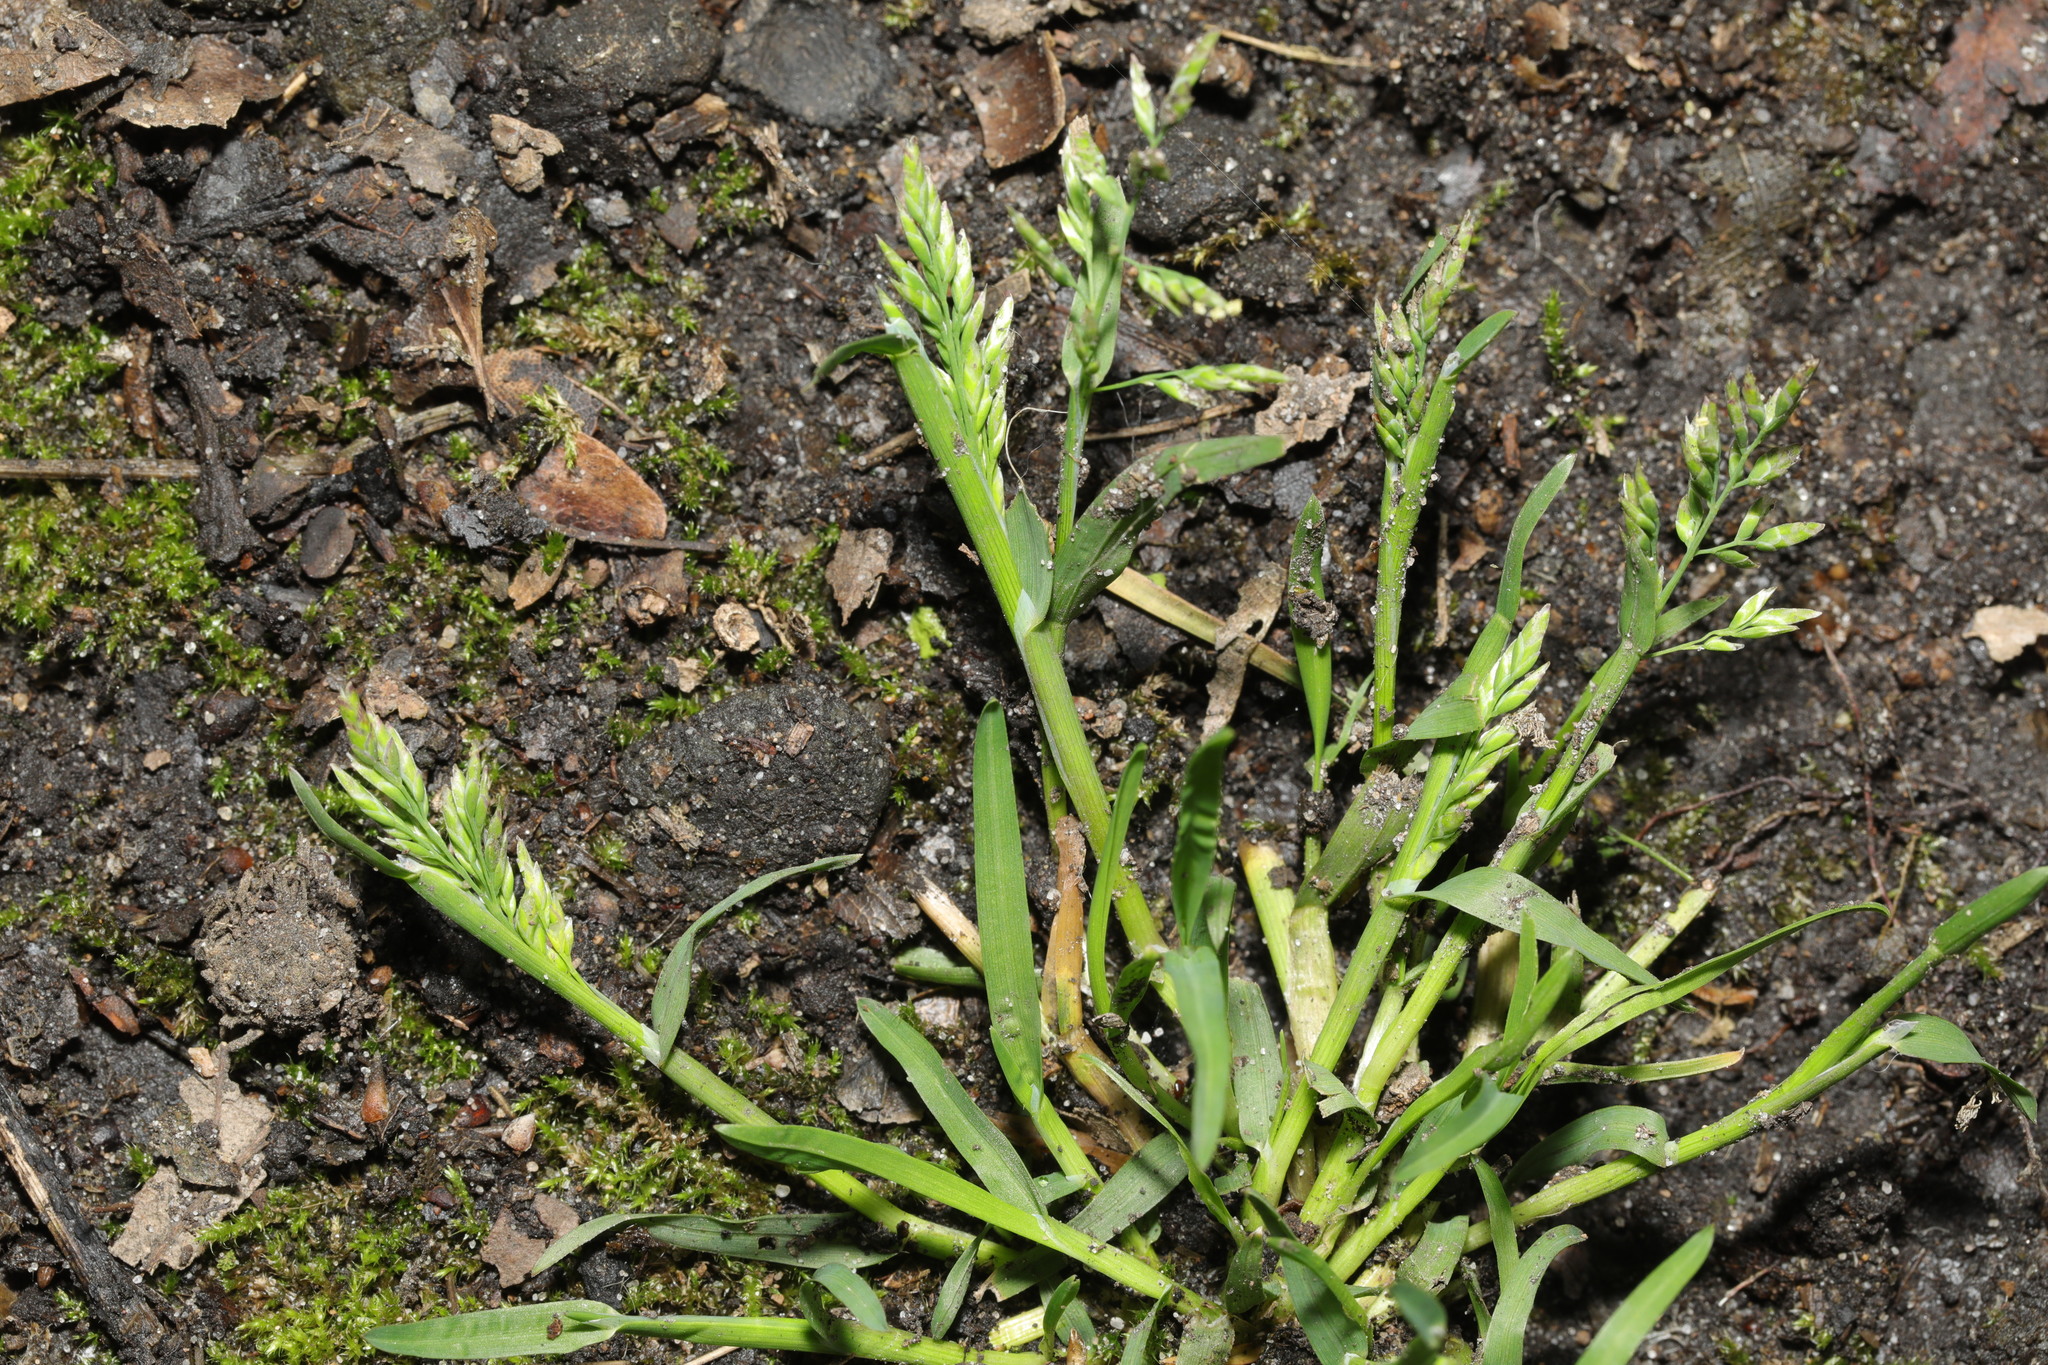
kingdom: Plantae
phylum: Tracheophyta
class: Liliopsida
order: Poales
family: Poaceae
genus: Poa
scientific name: Poa annua
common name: Annual bluegrass
